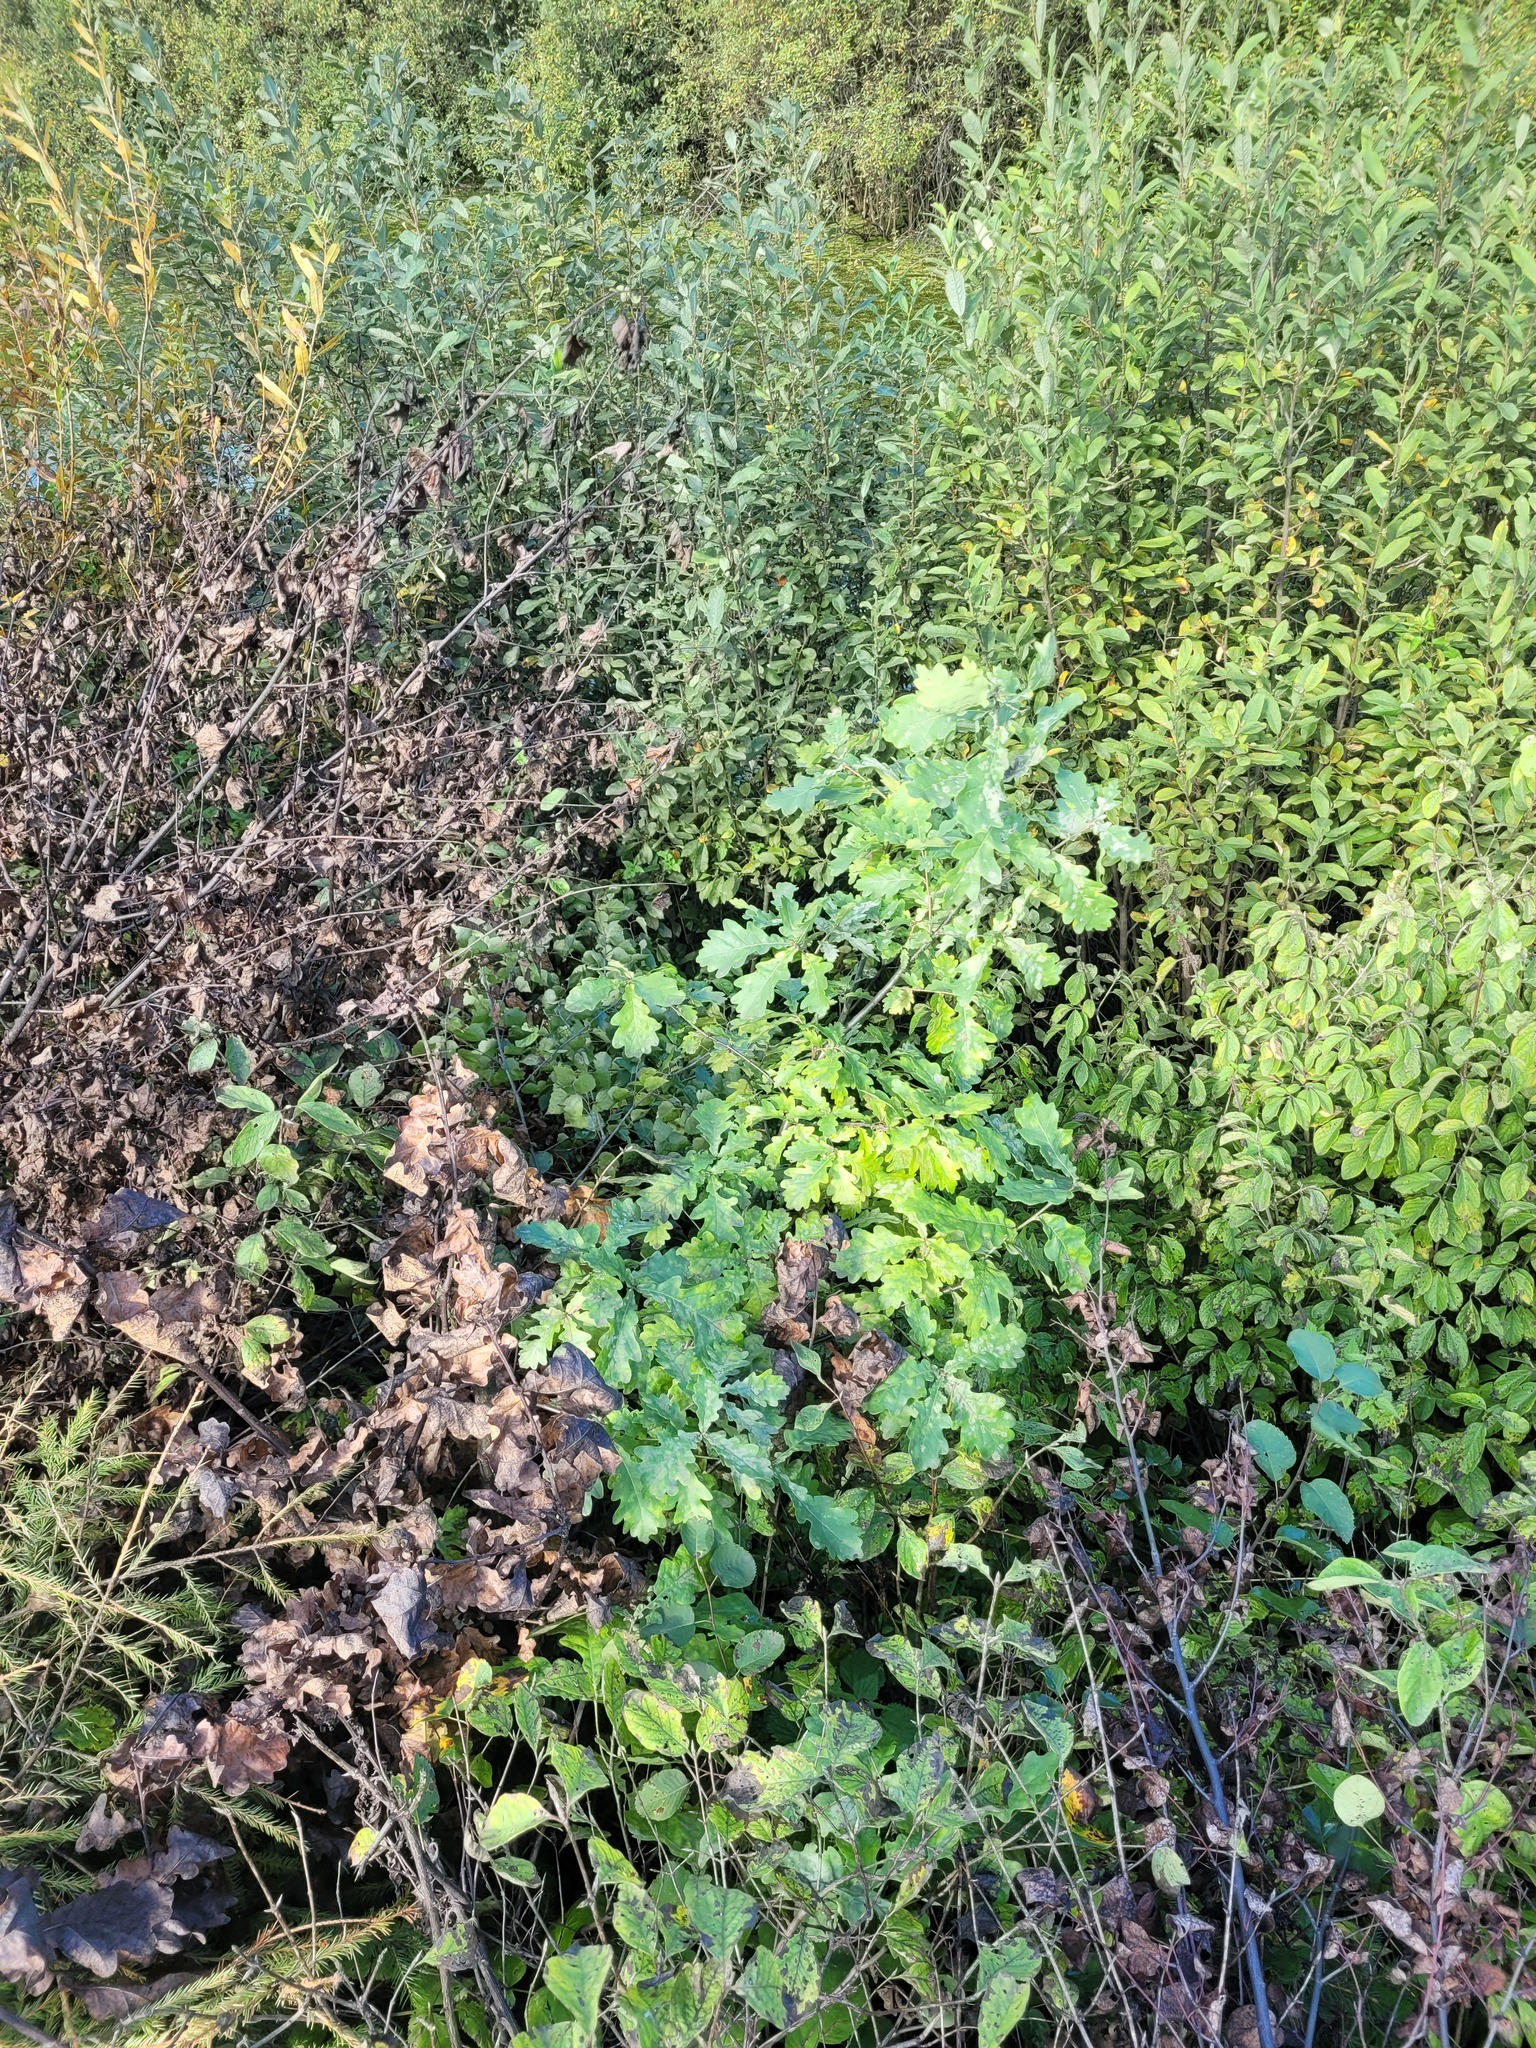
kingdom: Plantae
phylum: Tracheophyta
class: Magnoliopsida
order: Fagales
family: Fagaceae
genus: Quercus
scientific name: Quercus robur
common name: Pedunculate oak
